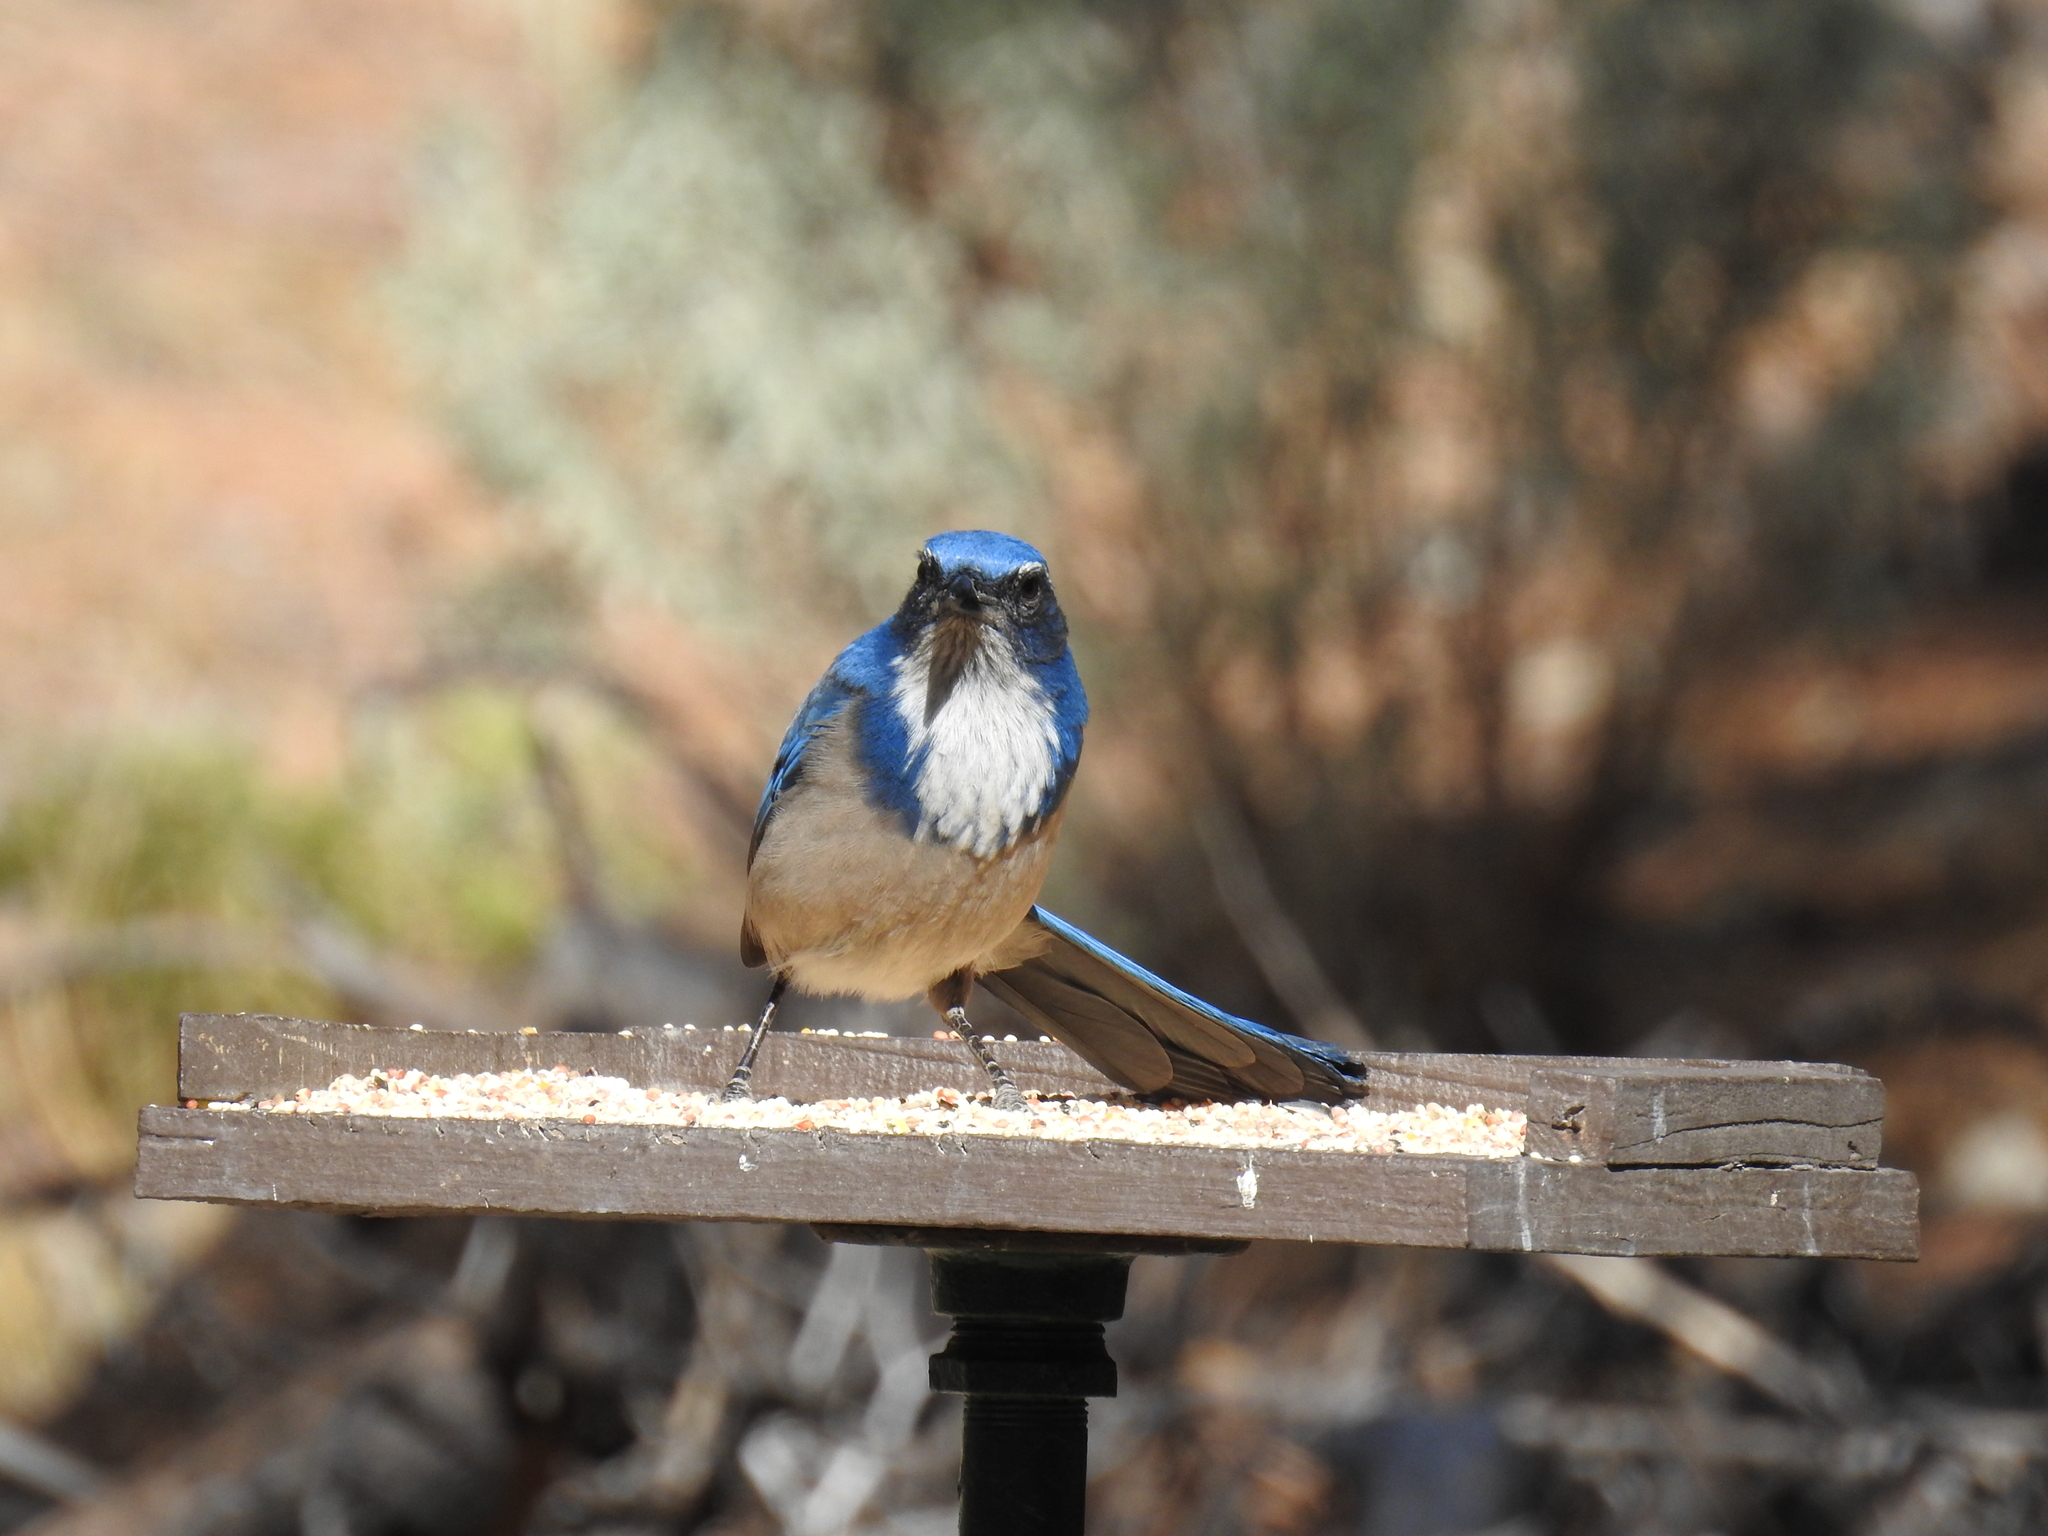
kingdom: Animalia
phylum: Chordata
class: Aves
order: Passeriformes
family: Corvidae
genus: Aphelocoma
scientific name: Aphelocoma californica
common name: California scrub-jay
